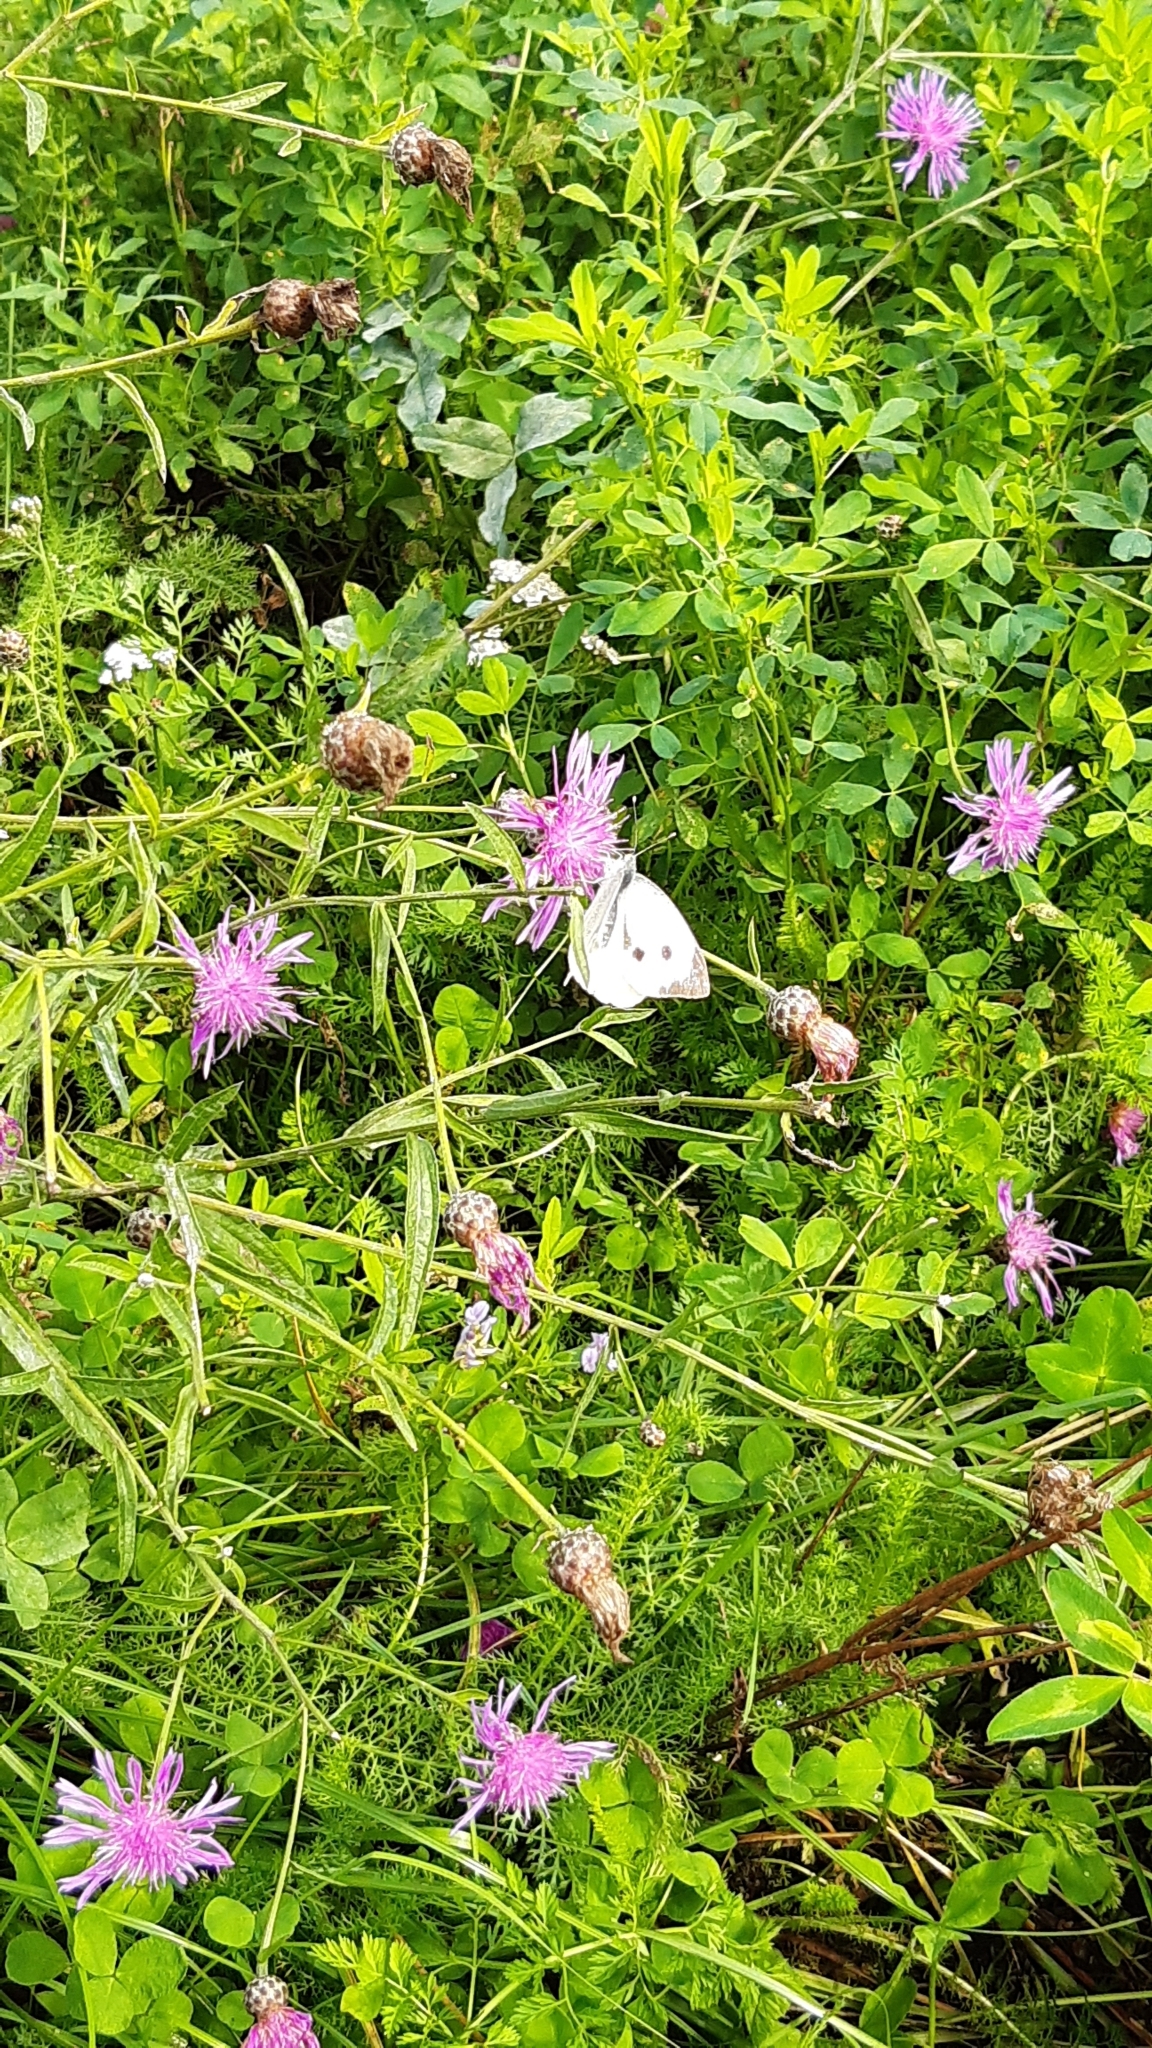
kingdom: Animalia
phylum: Arthropoda
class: Insecta
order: Lepidoptera
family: Pieridae
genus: Pieris
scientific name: Pieris brassicae
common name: Large white
